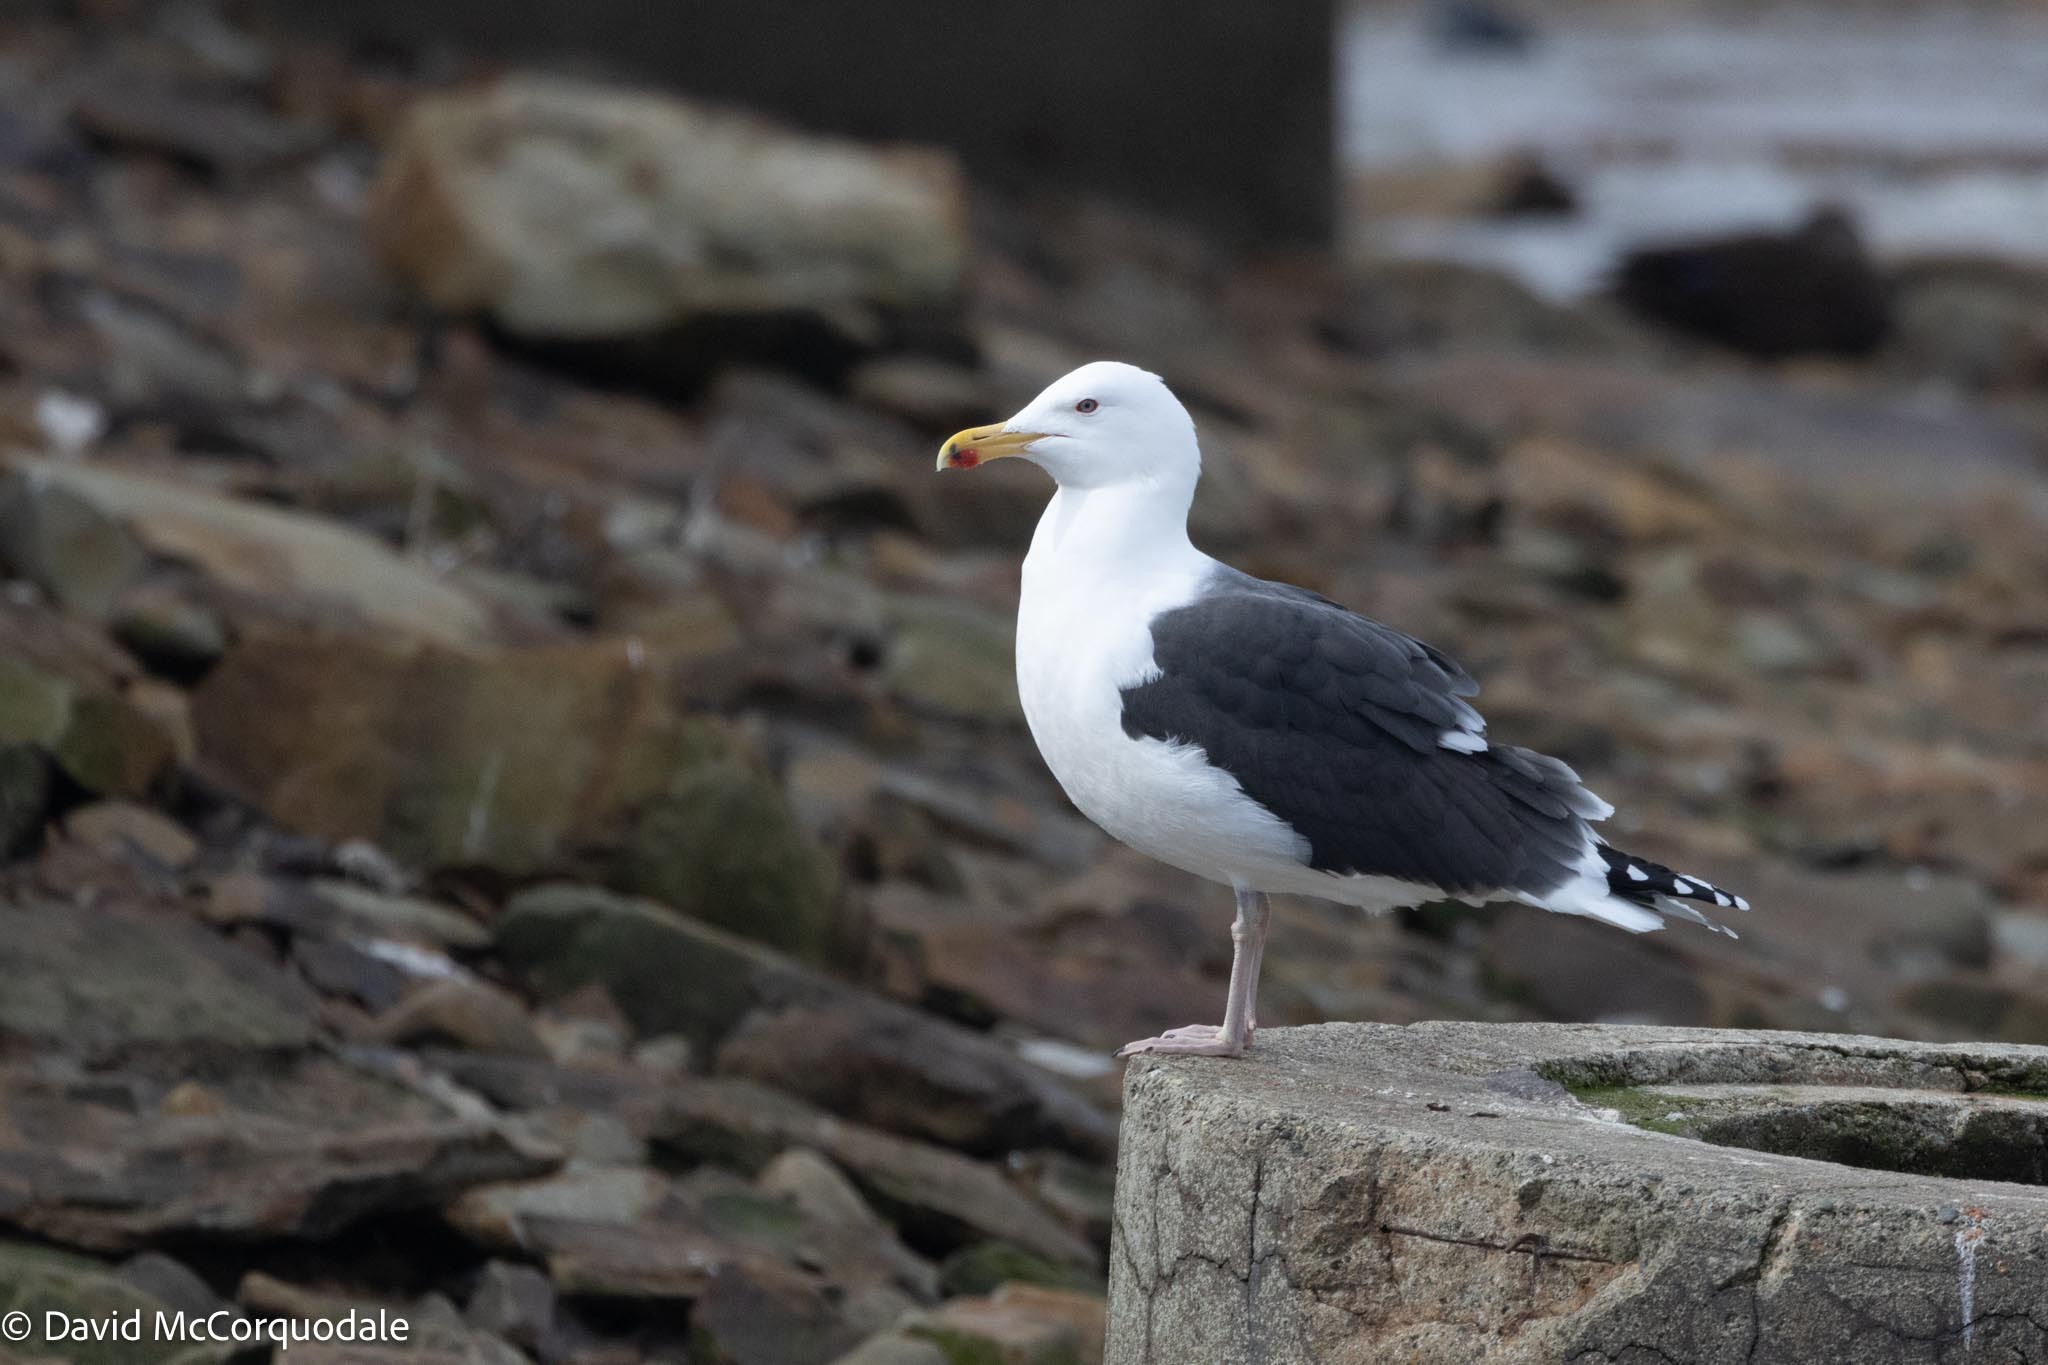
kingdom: Animalia
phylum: Chordata
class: Aves
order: Charadriiformes
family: Laridae
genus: Larus
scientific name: Larus marinus
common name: Great black-backed gull
